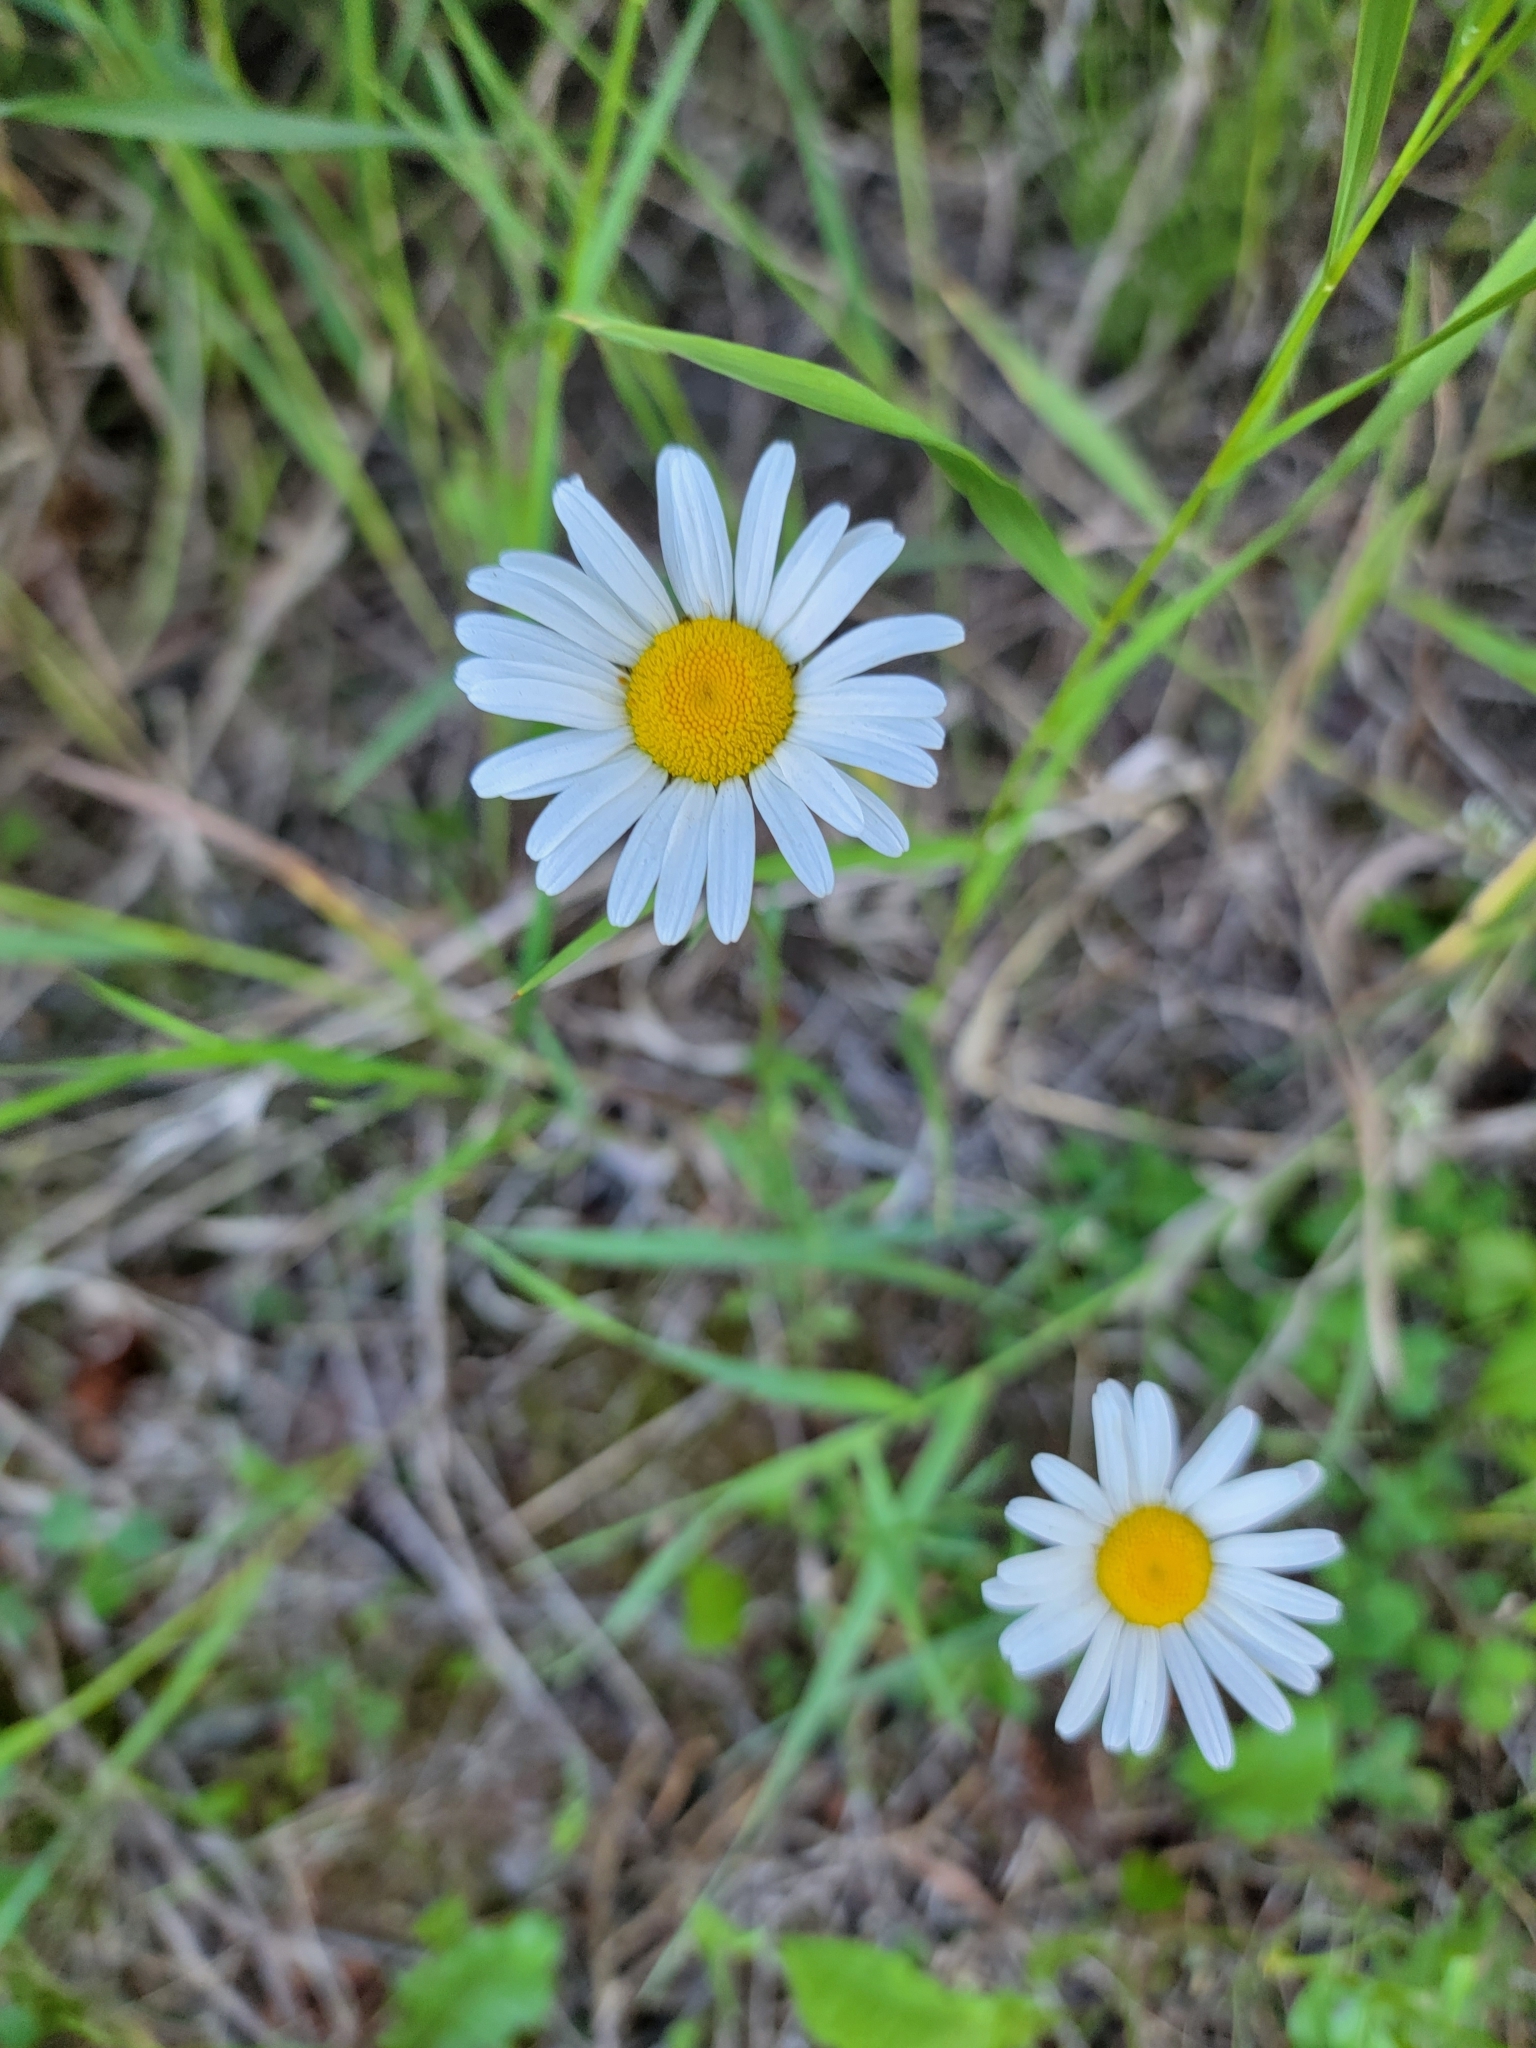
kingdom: Plantae
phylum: Tracheophyta
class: Magnoliopsida
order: Asterales
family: Asteraceae
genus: Leucanthemum
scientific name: Leucanthemum vulgare
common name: Oxeye daisy
